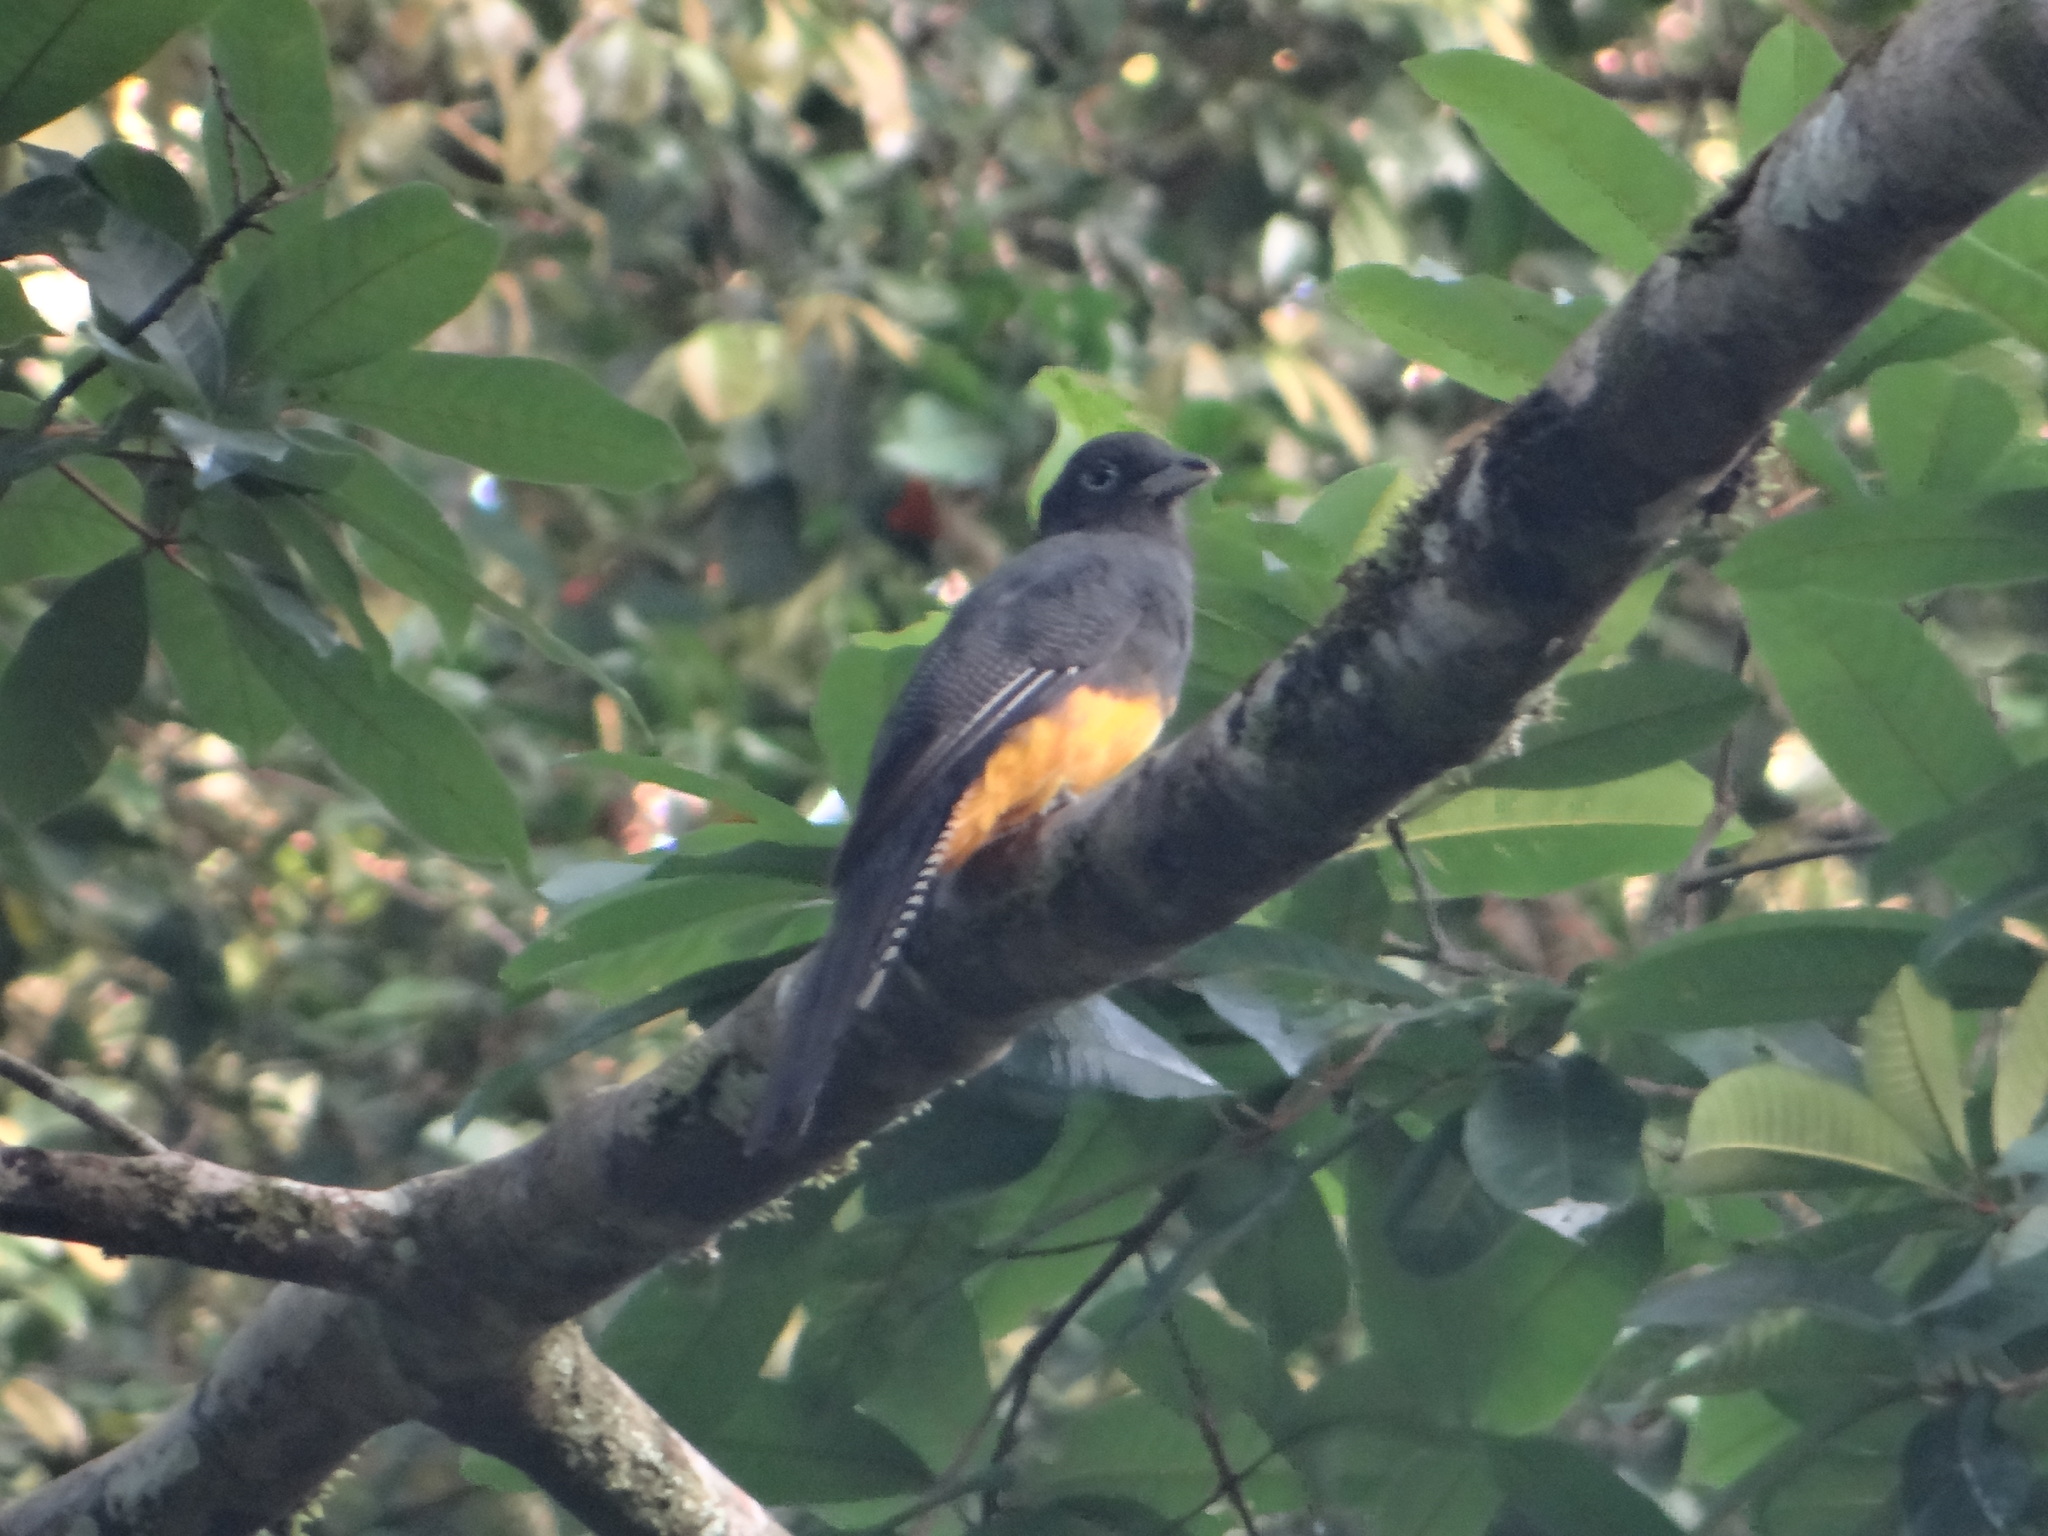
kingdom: Animalia
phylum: Chordata
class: Aves
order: Trogoniformes
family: Trogonidae
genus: Trogon
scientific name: Trogon viridis
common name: Green-backed trogon
